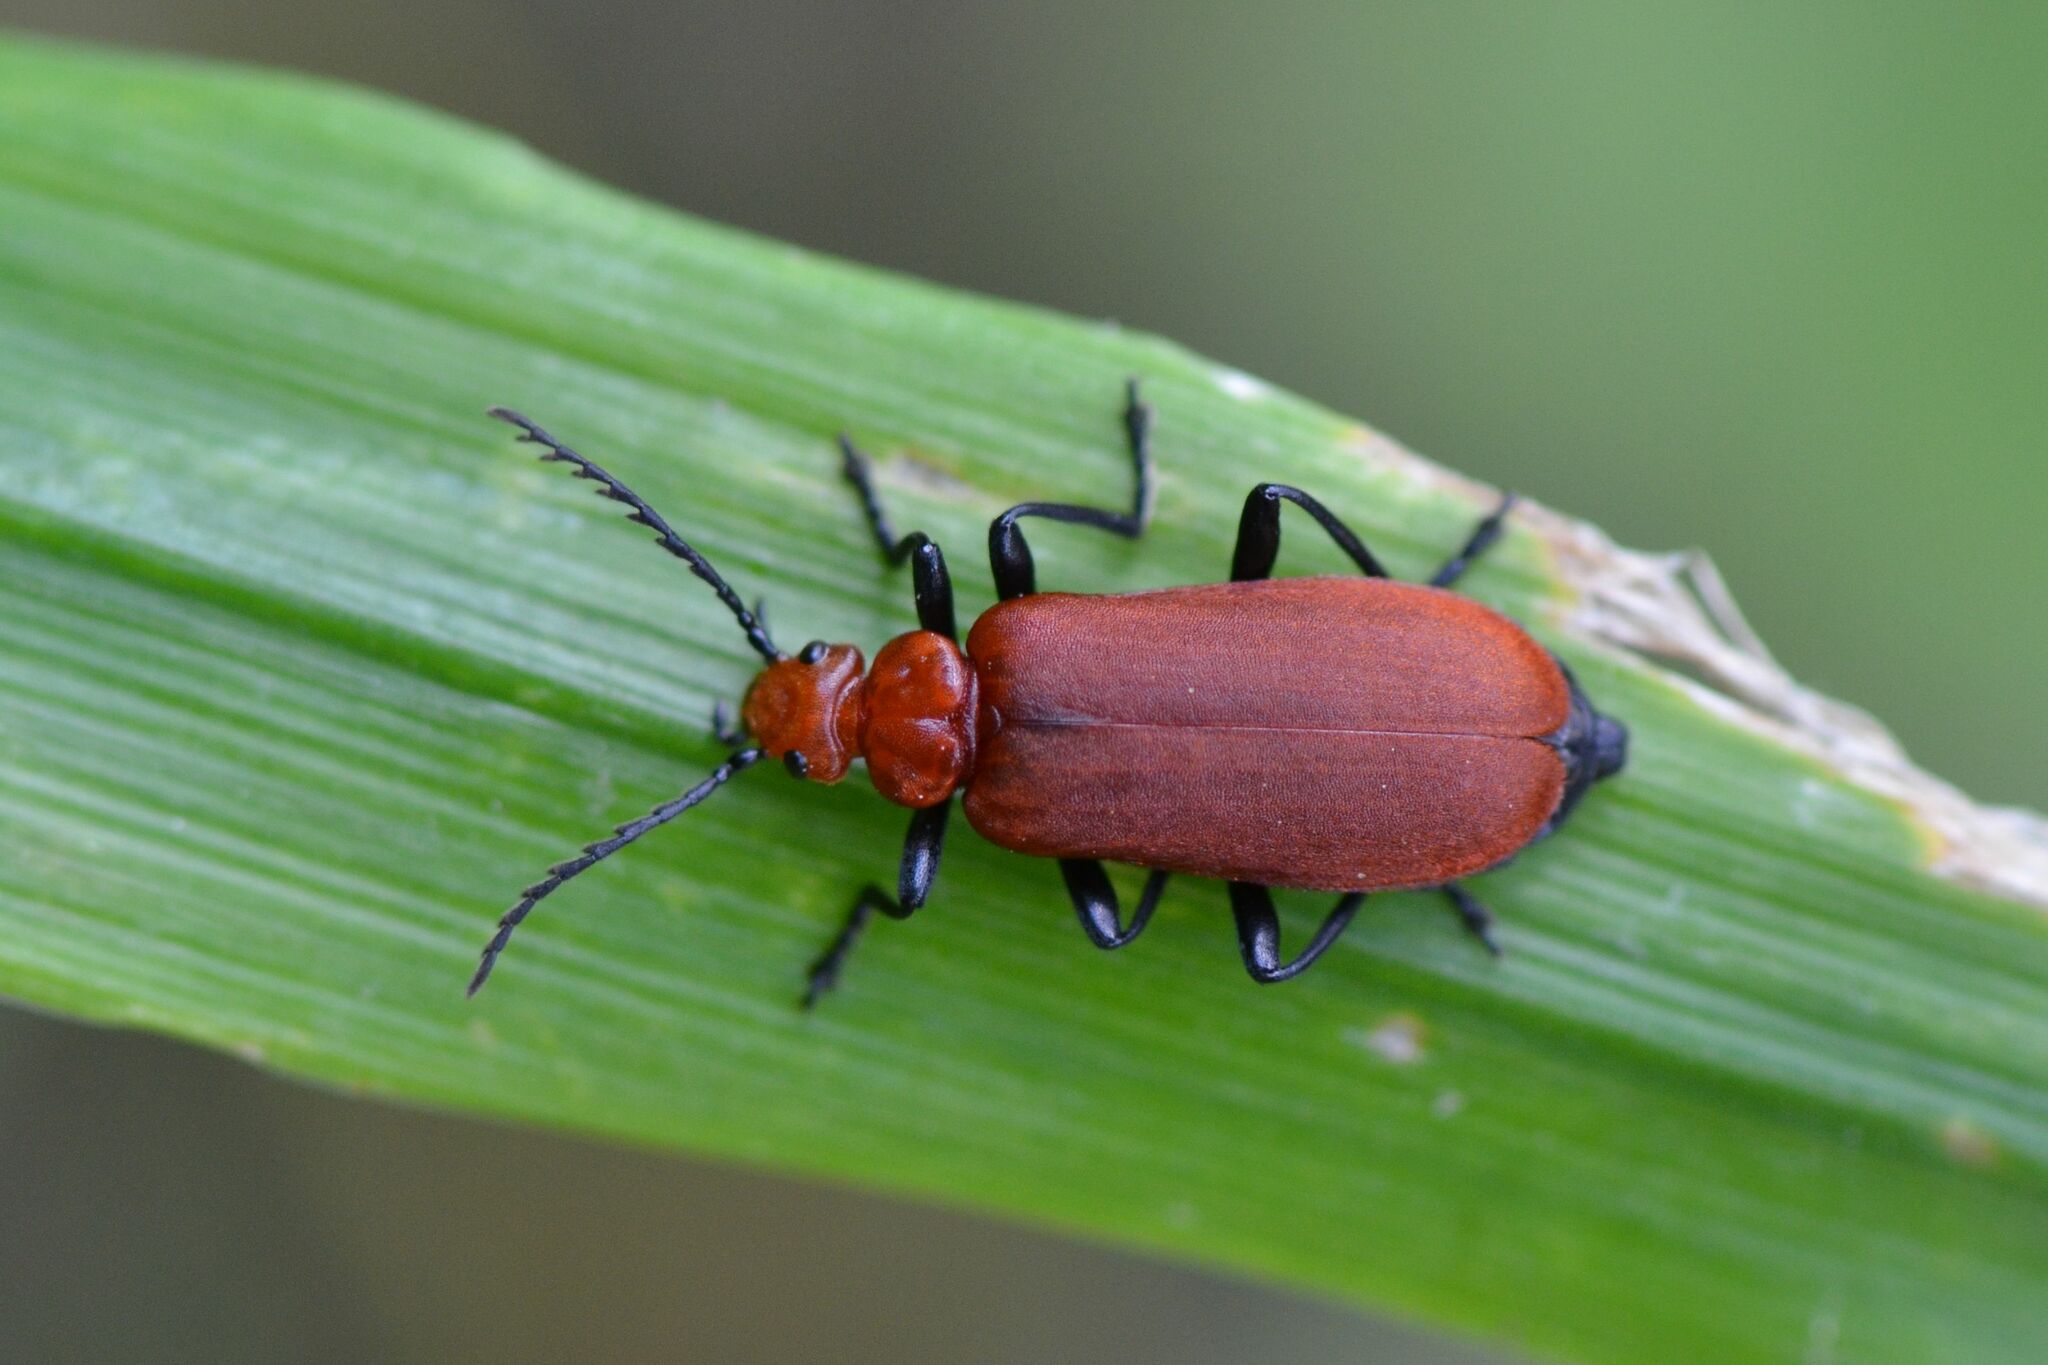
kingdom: Animalia
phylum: Arthropoda
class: Insecta
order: Coleoptera
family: Pyrochroidae
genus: Pyrochroa
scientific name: Pyrochroa serraticornis
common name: Red-headed cardinal beetle
